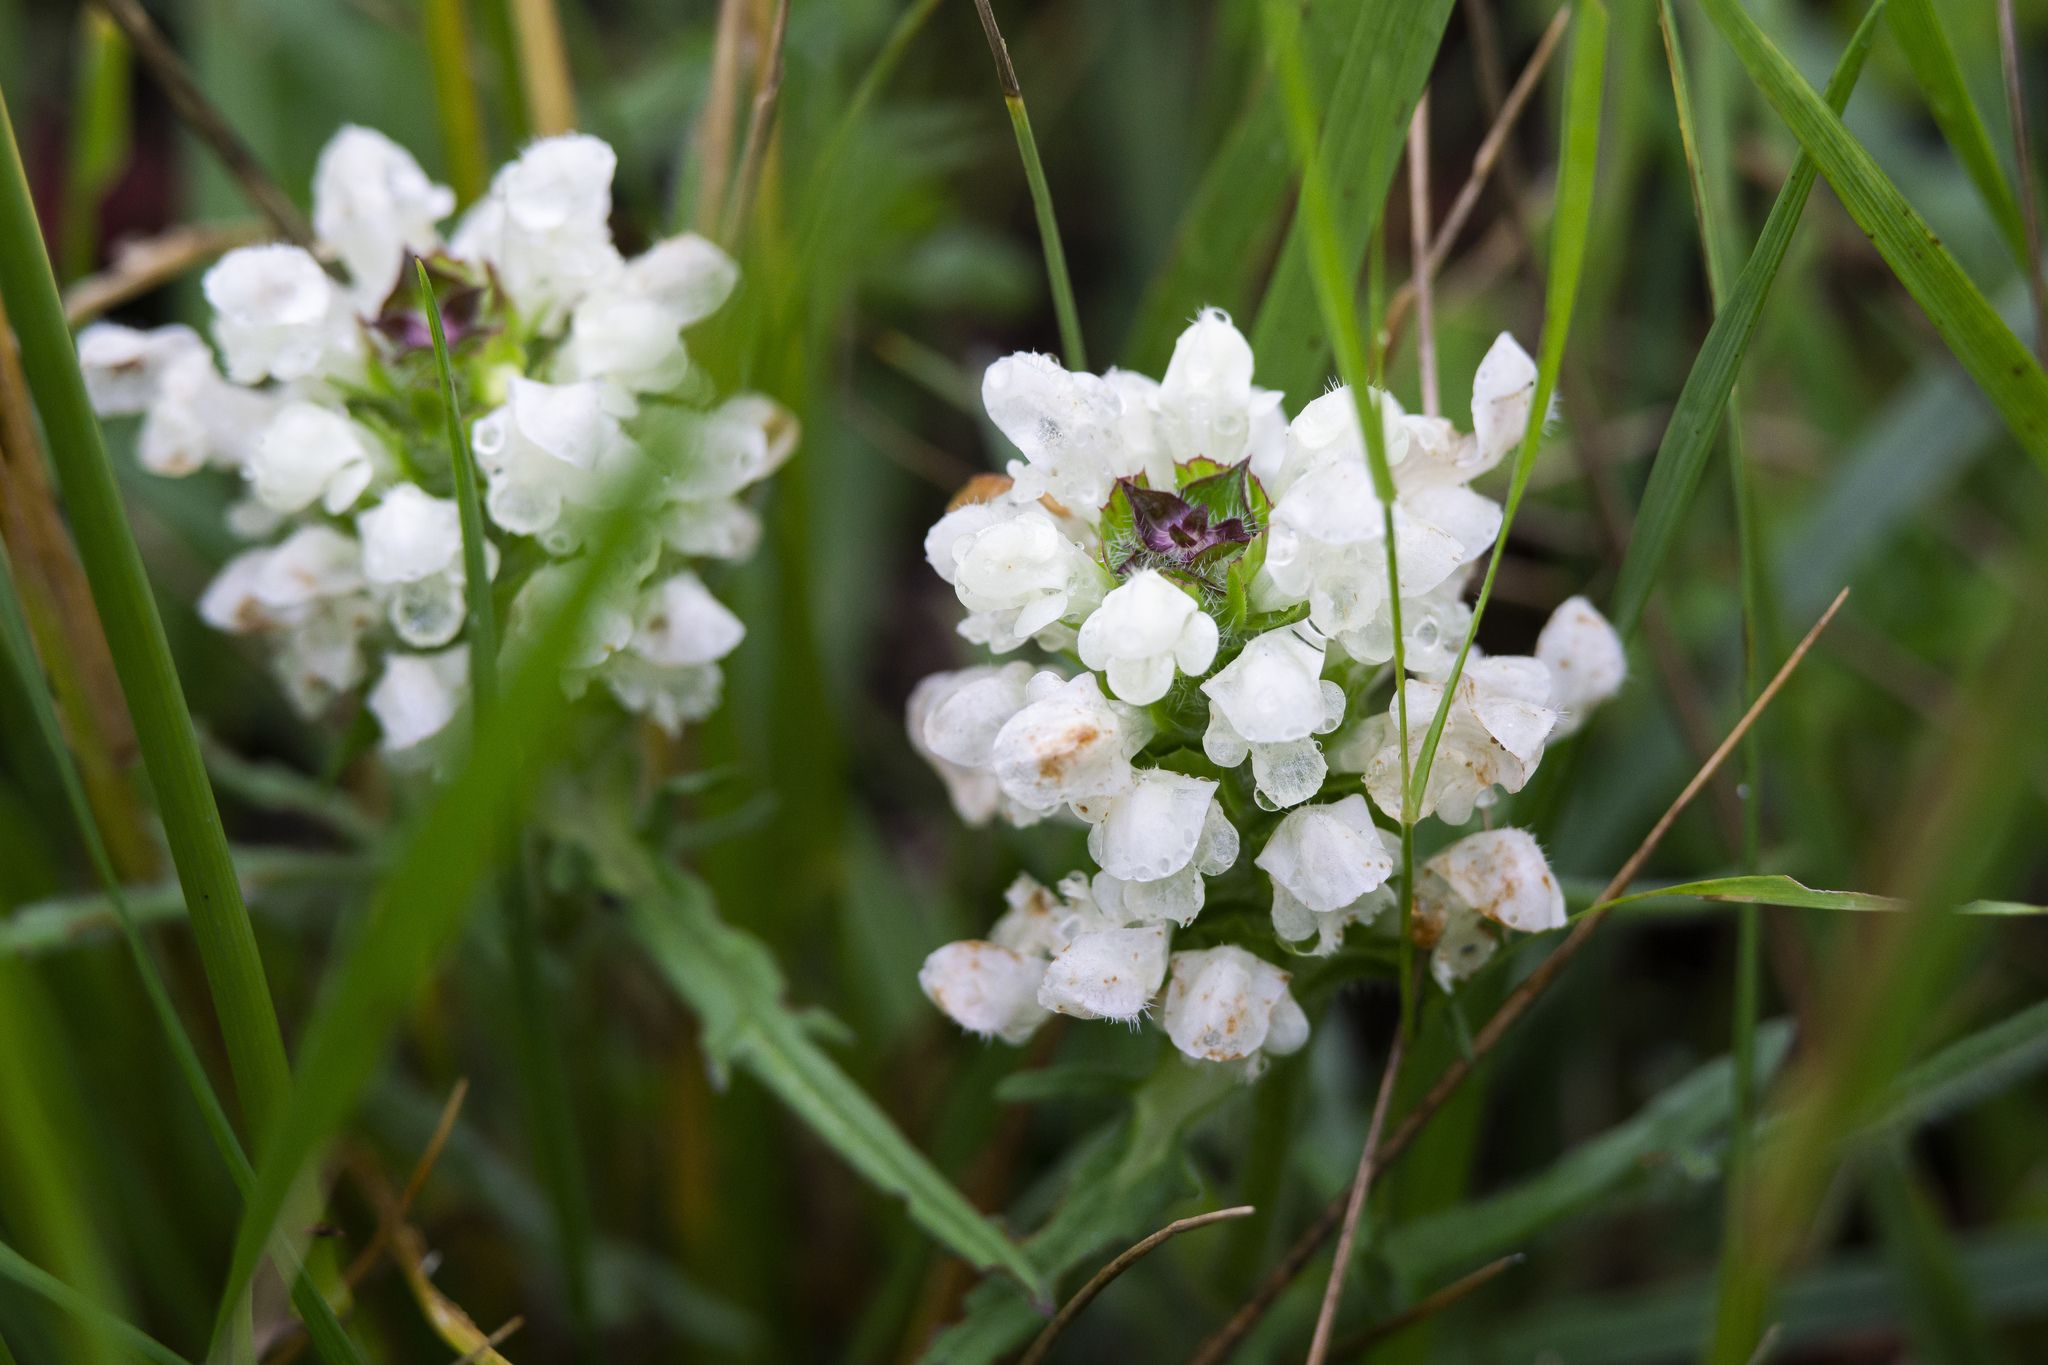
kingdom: Plantae
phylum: Tracheophyta
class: Magnoliopsida
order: Lamiales
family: Lamiaceae
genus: Prunella
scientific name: Prunella laciniata
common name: Cut-leaved selfheal
